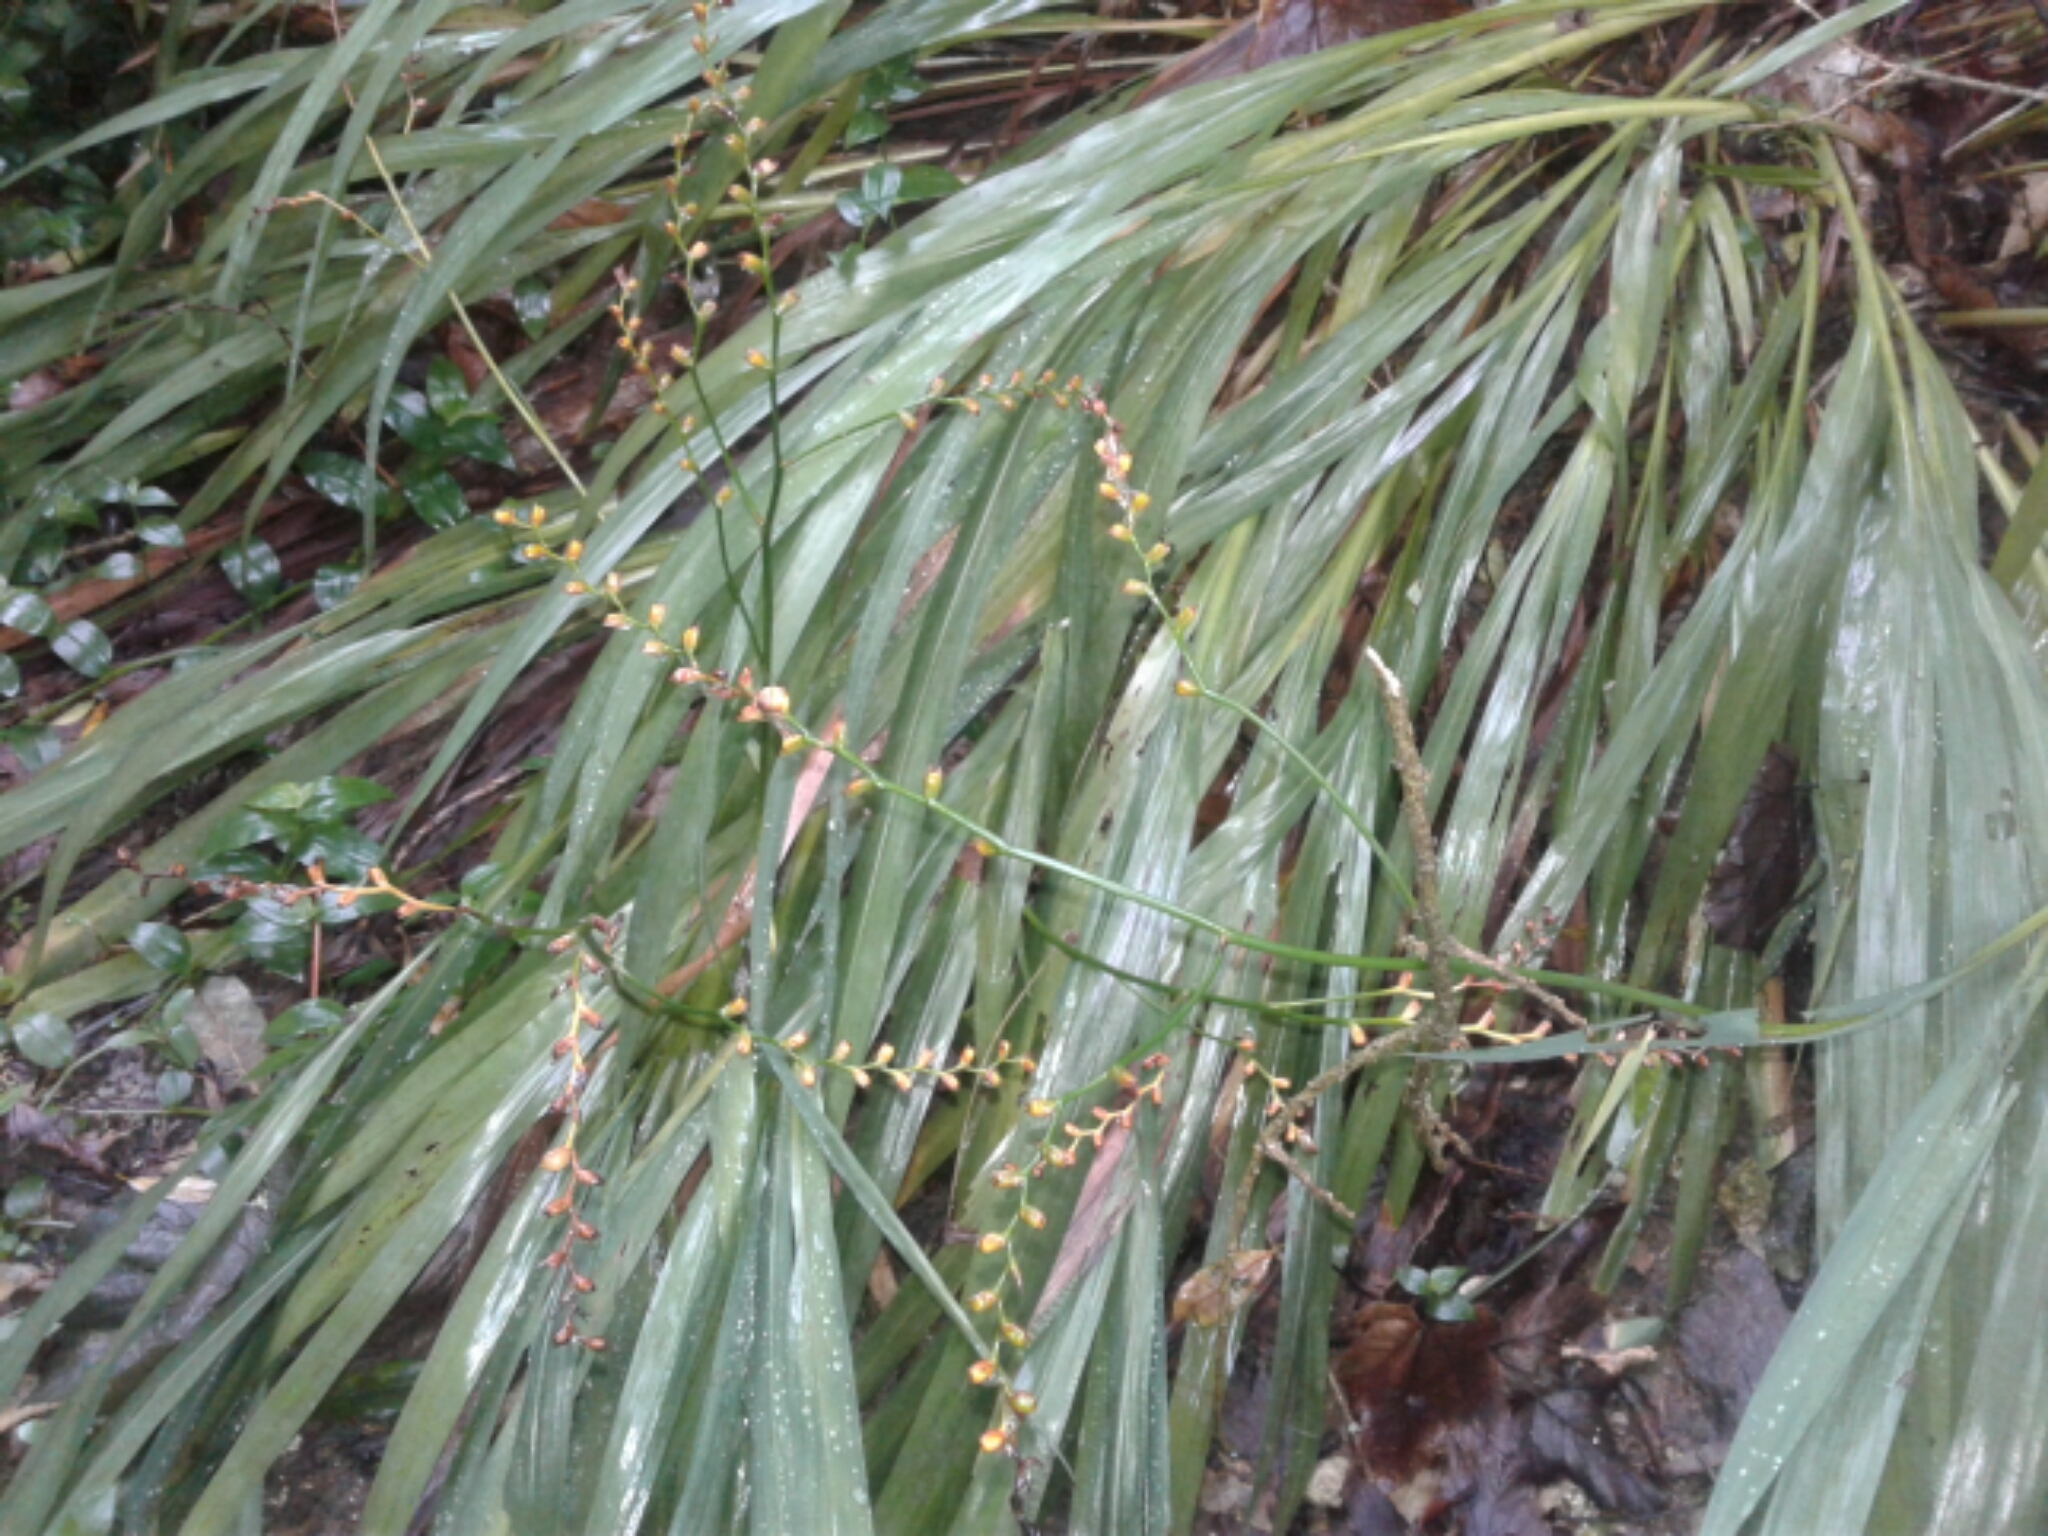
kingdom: Plantae
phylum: Tracheophyta
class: Liliopsida
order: Asparagales
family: Iridaceae
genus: Crocosmia
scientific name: Crocosmia crocosmiiflora
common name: Montbretia
